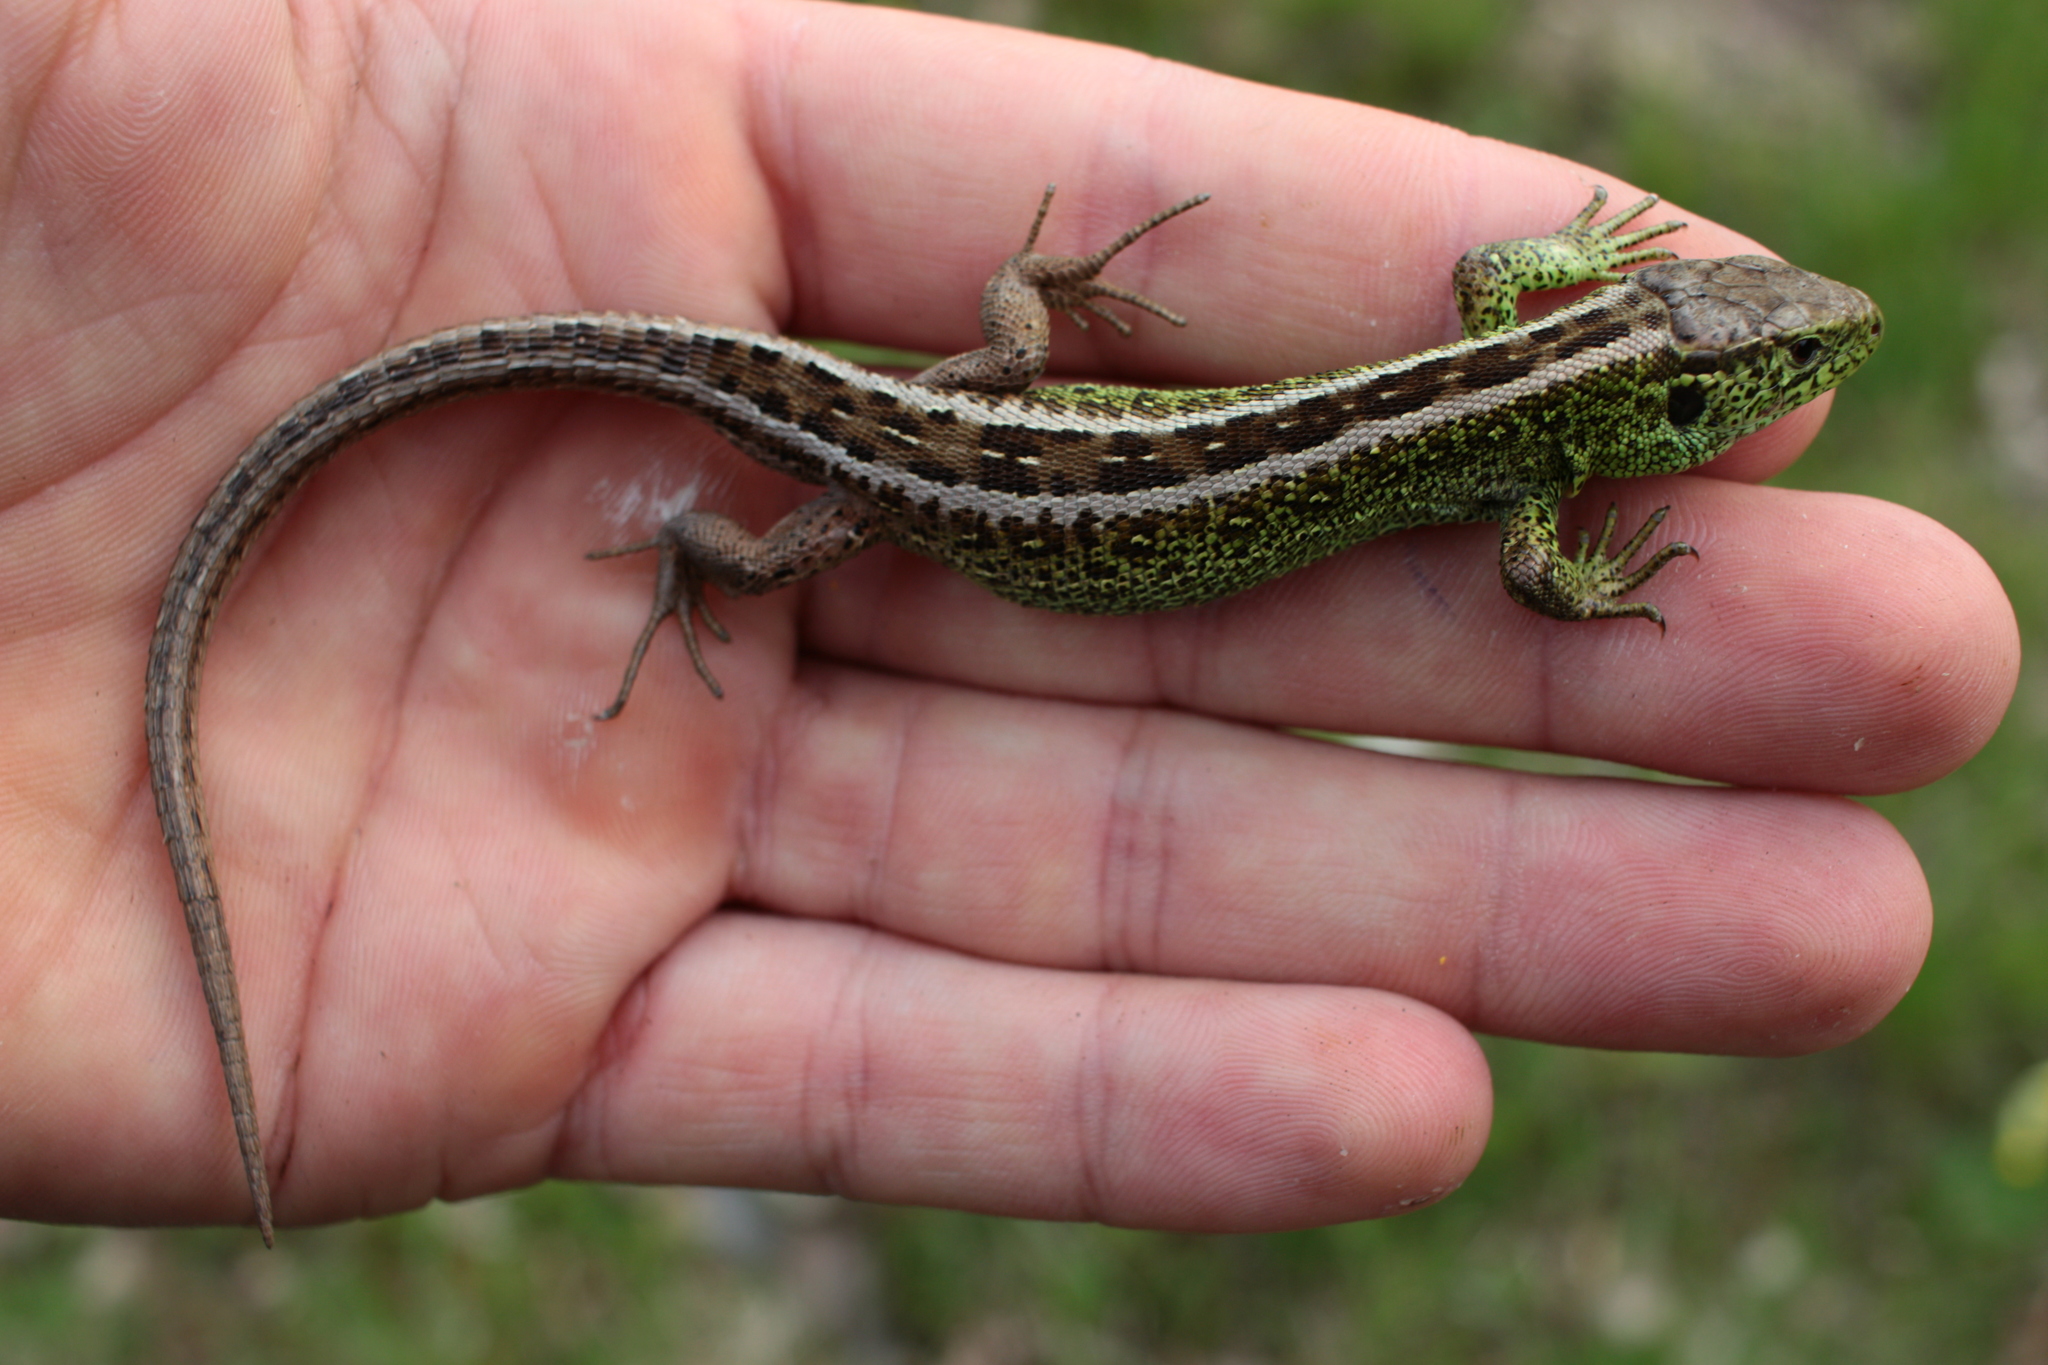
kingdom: Animalia
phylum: Chordata
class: Squamata
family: Lacertidae
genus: Lacerta
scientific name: Lacerta agilis
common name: Sand lizard
